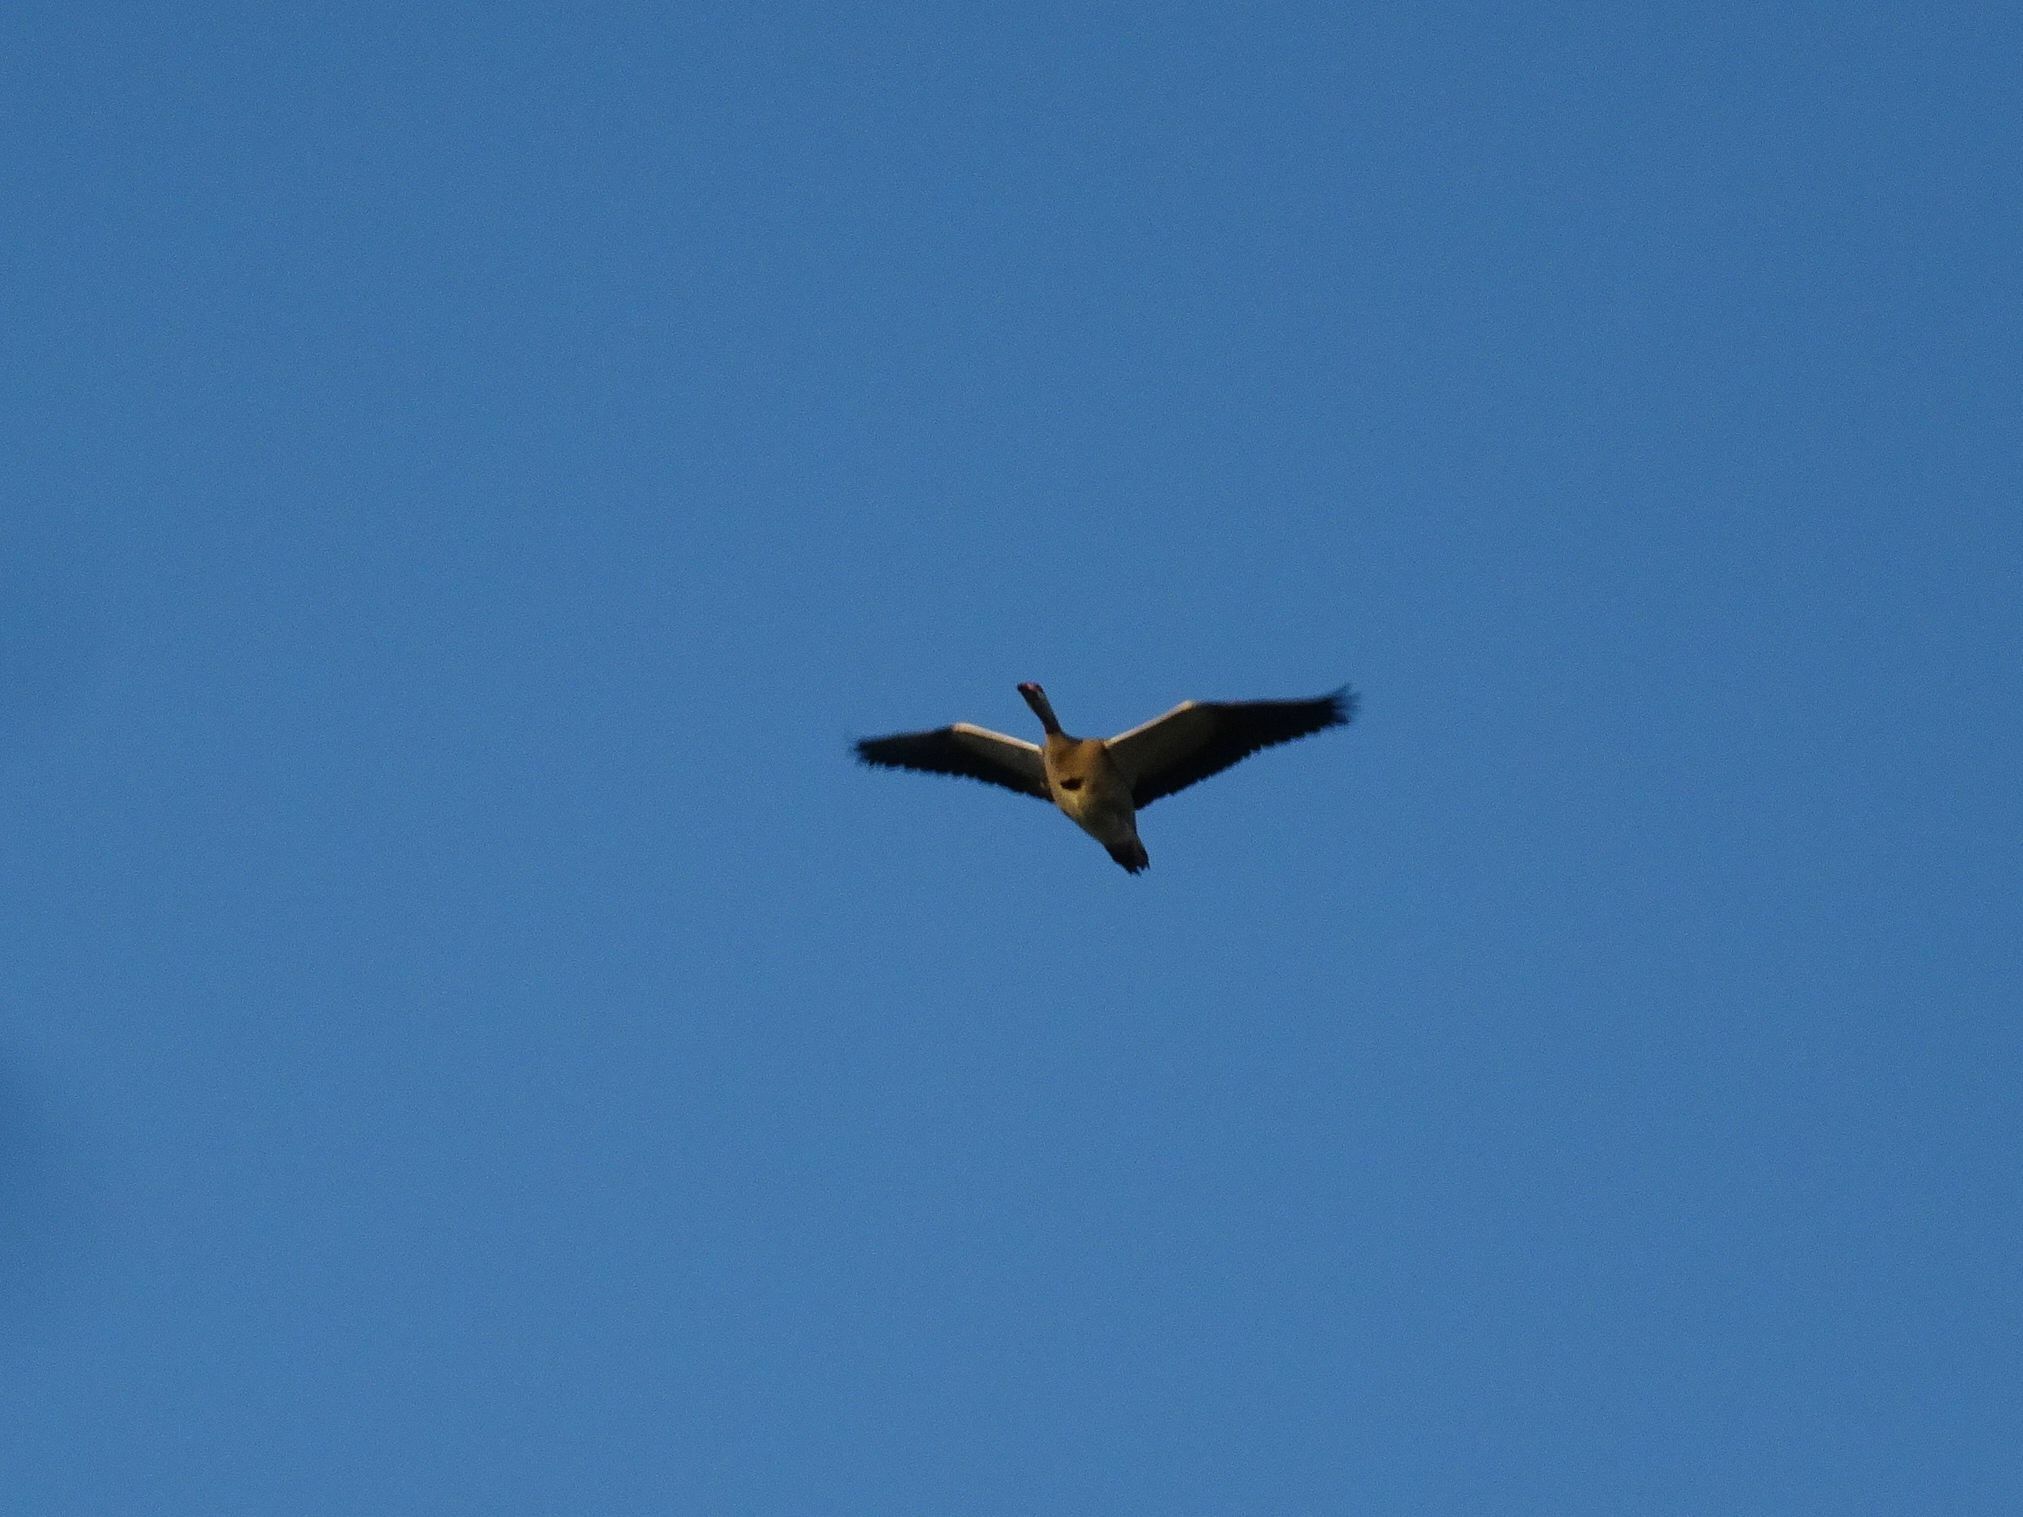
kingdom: Animalia
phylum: Chordata
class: Aves
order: Anseriformes
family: Anatidae
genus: Alopochen
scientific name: Alopochen aegyptiaca
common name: Egyptian goose
